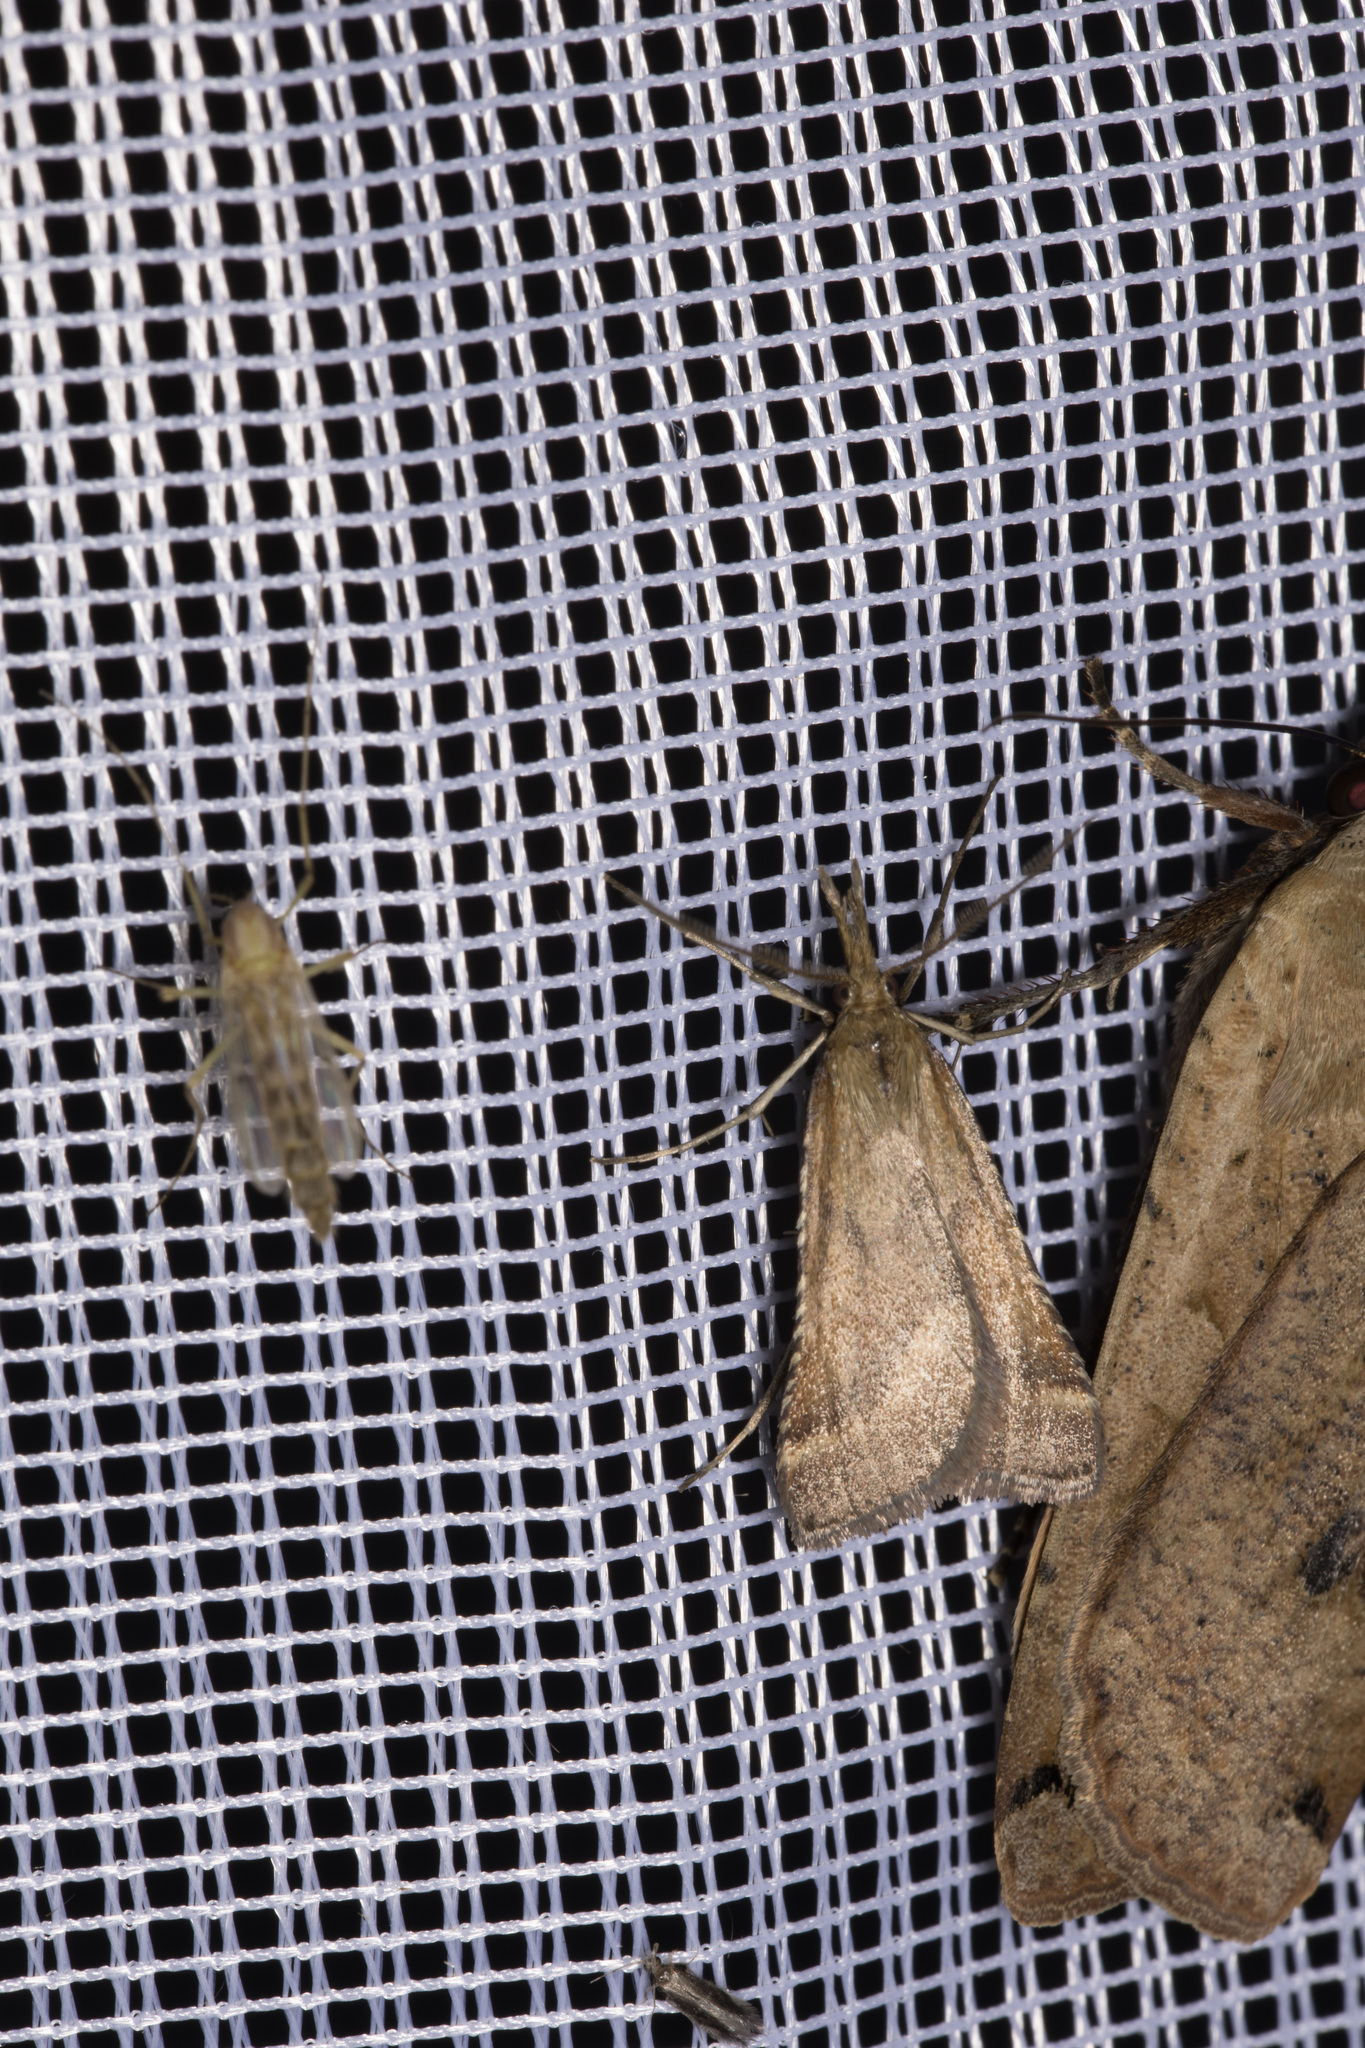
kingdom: Animalia
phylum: Arthropoda
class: Insecta
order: Lepidoptera
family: Pyralidae
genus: Synaphe
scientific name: Synaphe punctalis
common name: Long-legged tabby
